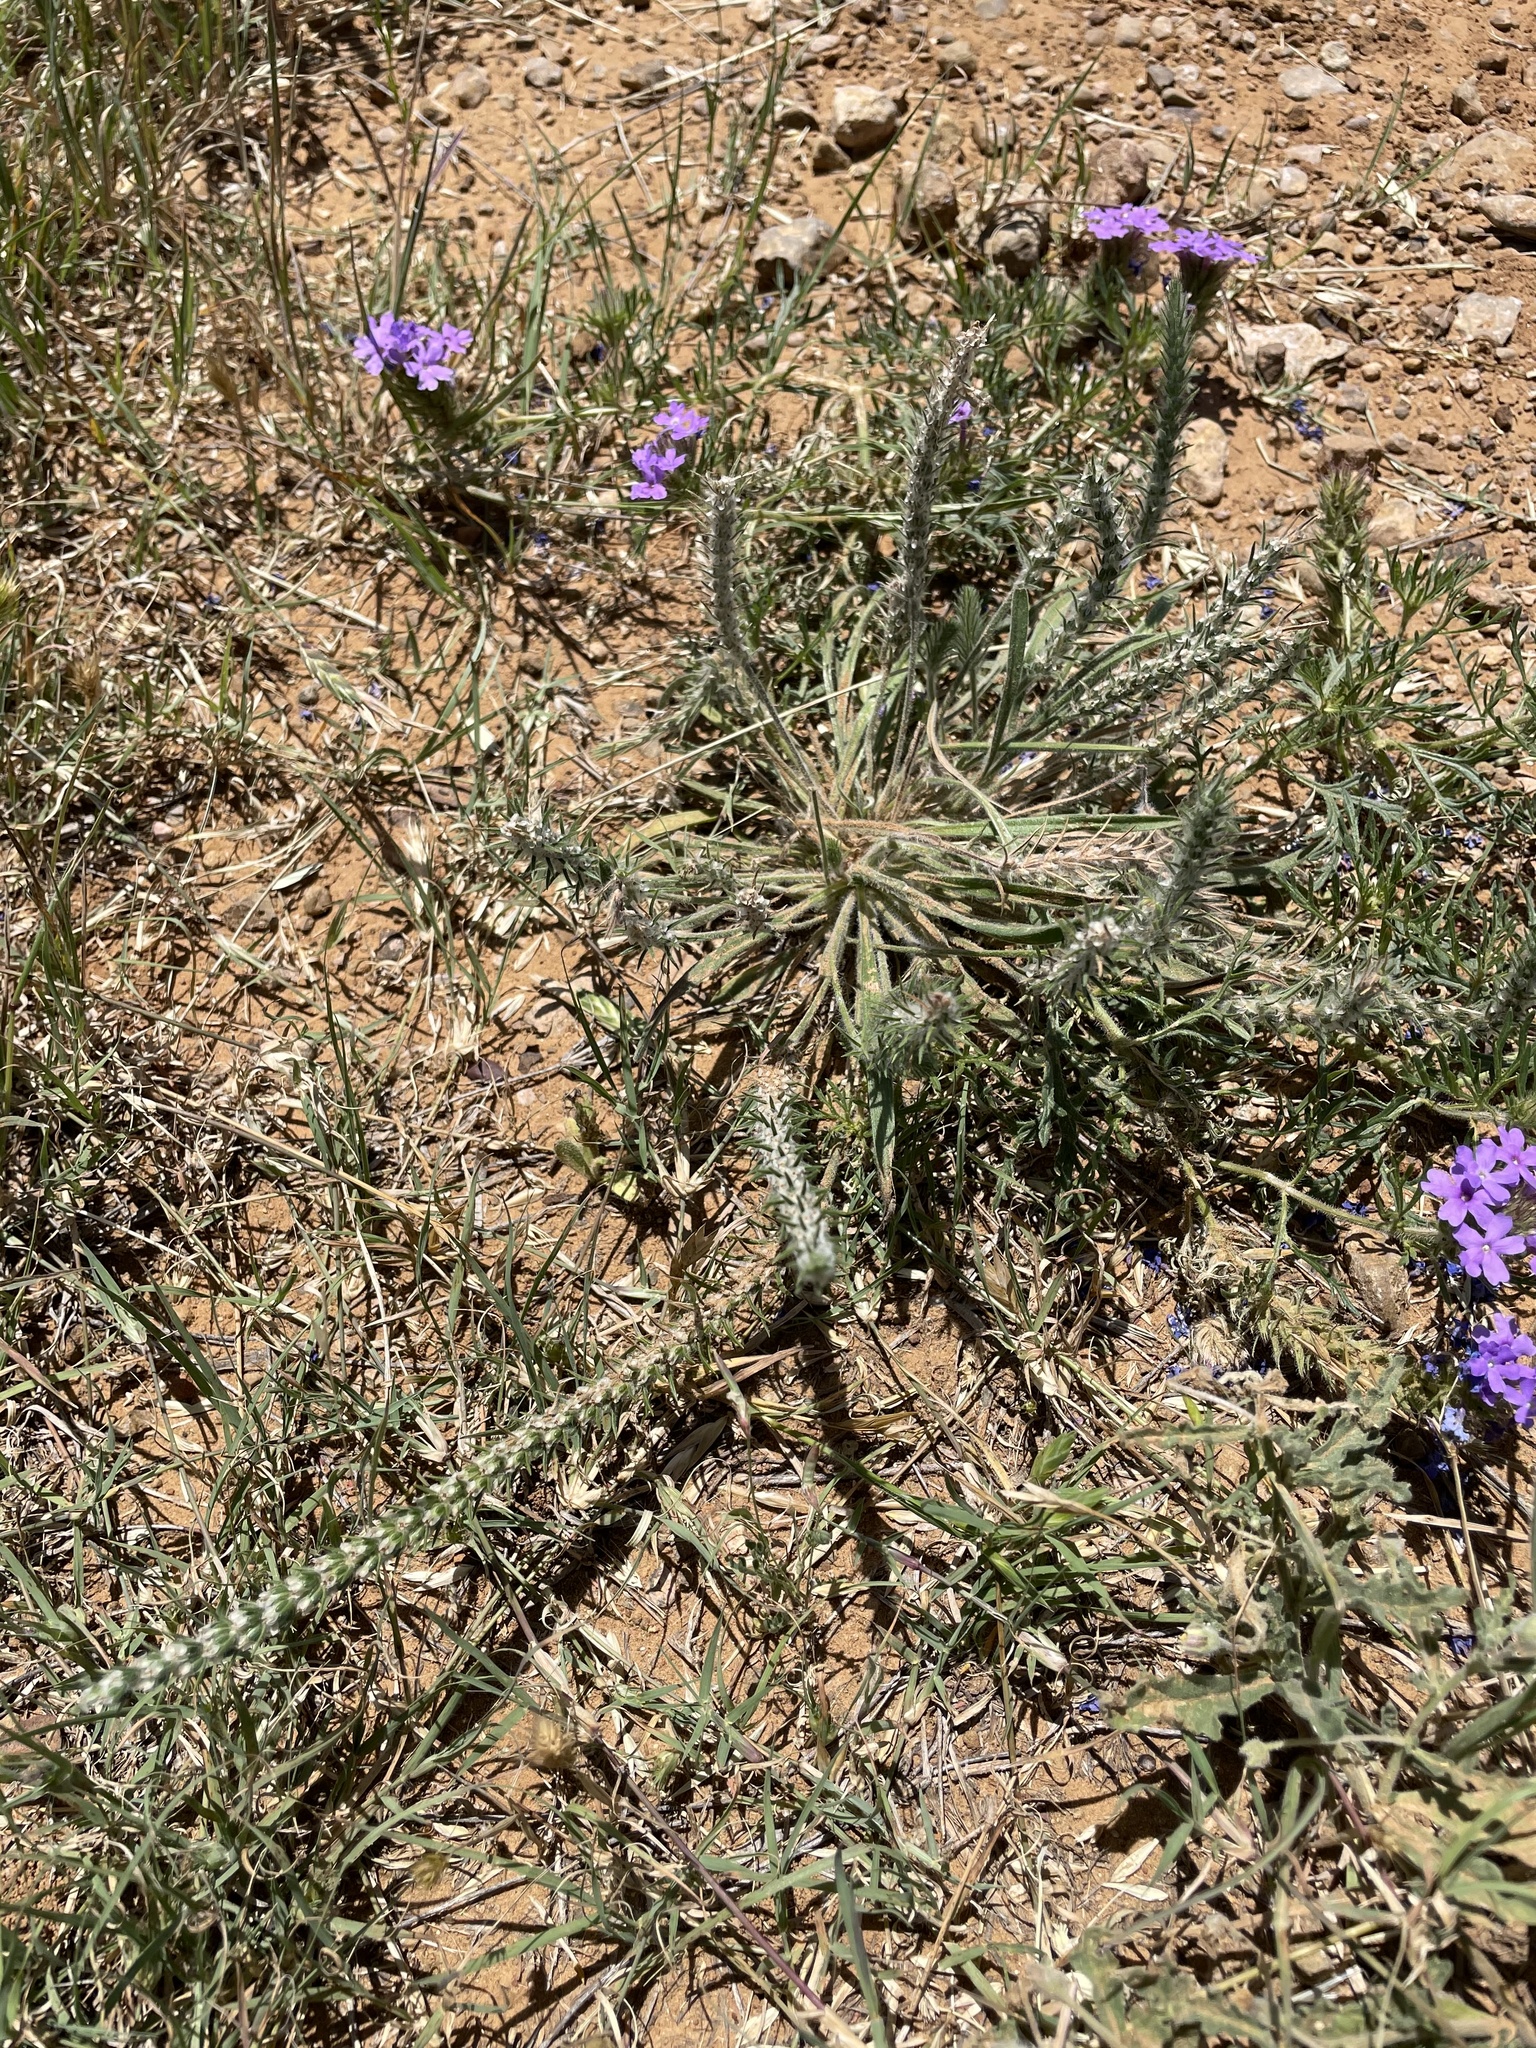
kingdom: Plantae
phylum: Tracheophyta
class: Magnoliopsida
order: Lamiales
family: Plantaginaceae
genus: Plantago
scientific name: Plantago patagonica
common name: Patagonia indian-wheat
